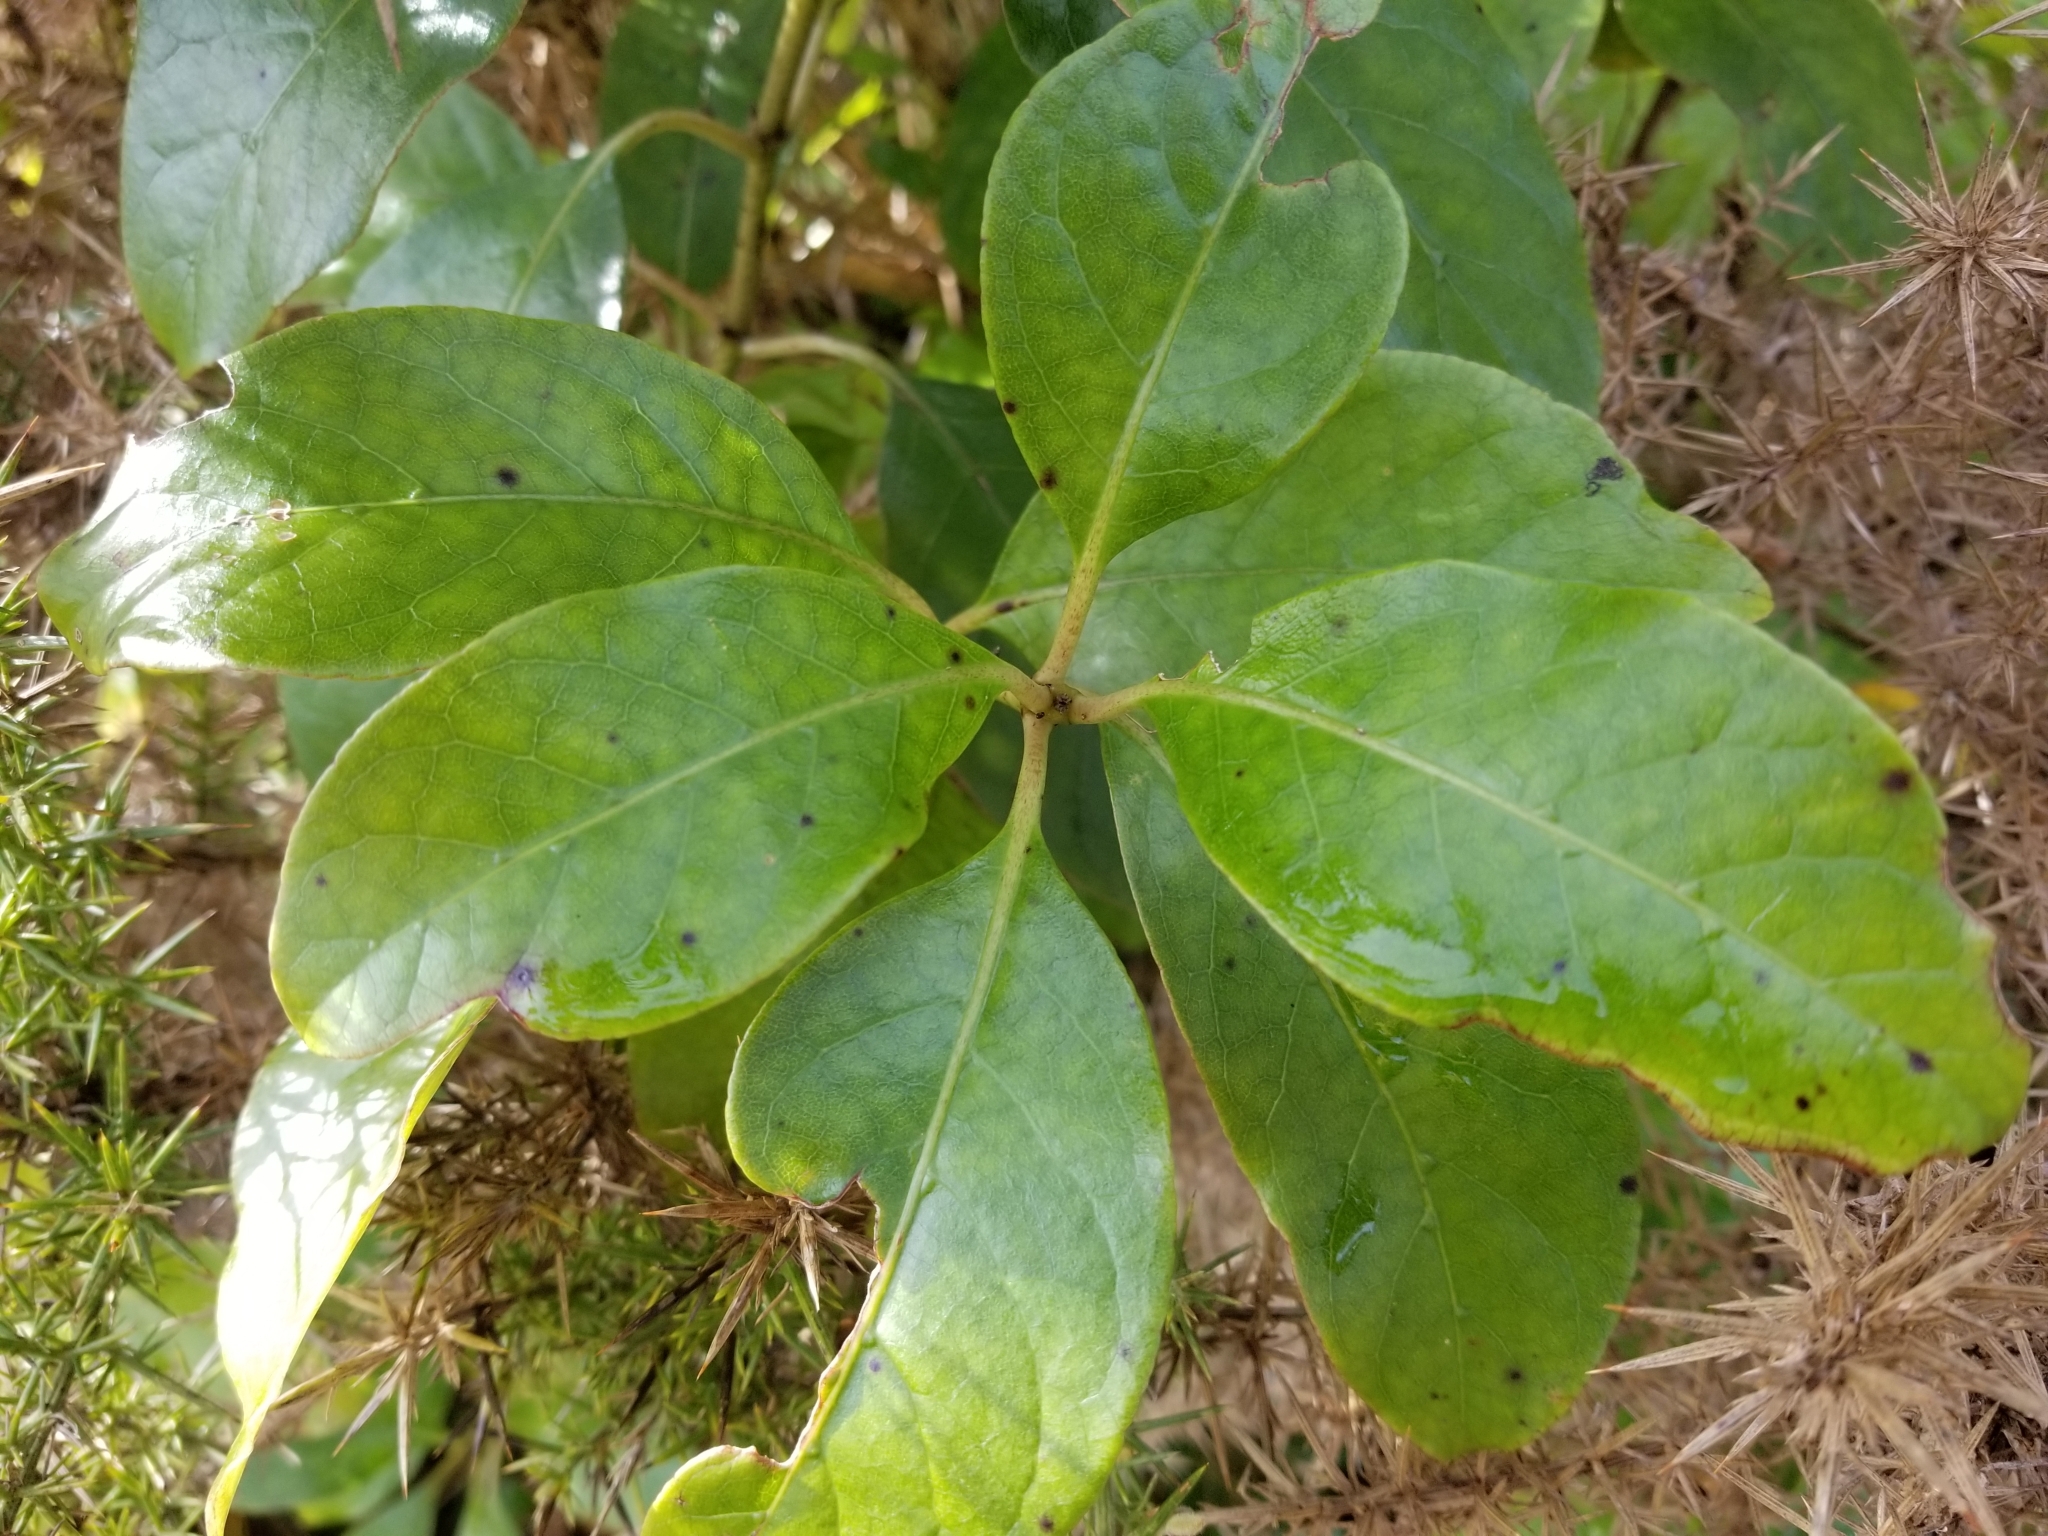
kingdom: Plantae
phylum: Tracheophyta
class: Magnoliopsida
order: Gentianales
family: Rubiaceae
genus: Coprosma
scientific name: Coprosma autumnalis
